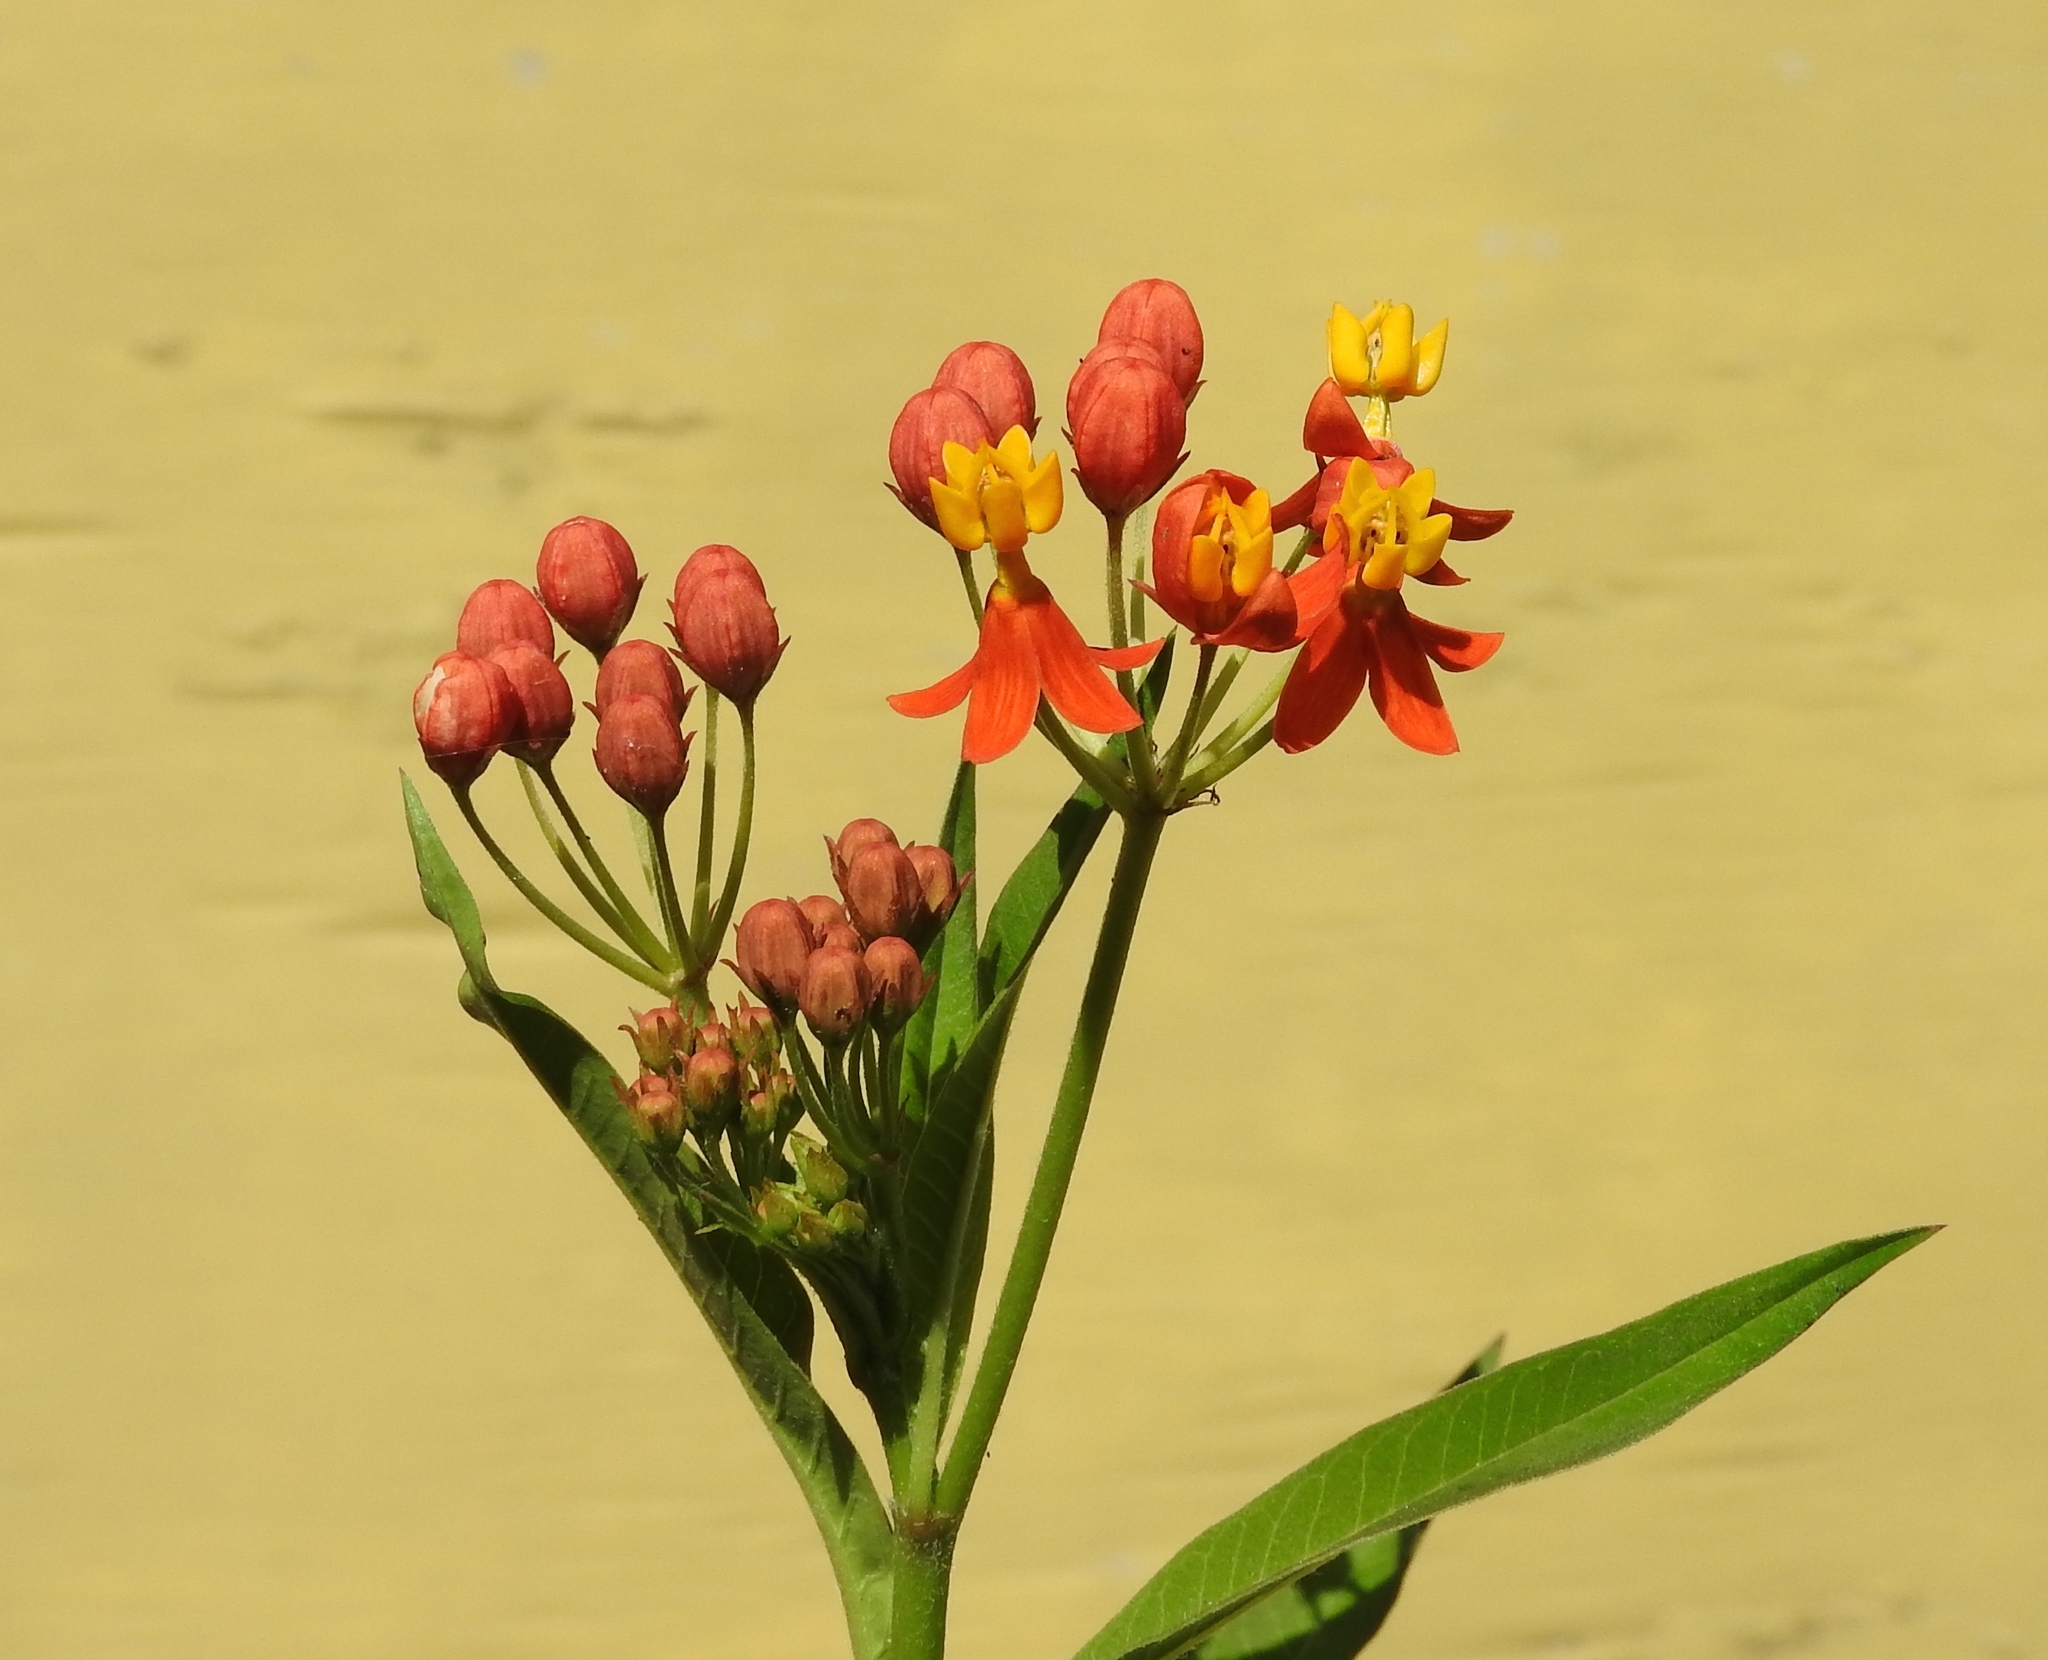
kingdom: Plantae
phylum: Tracheophyta
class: Magnoliopsida
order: Gentianales
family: Apocynaceae
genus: Asclepias
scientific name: Asclepias curassavica
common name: Bloodflower
